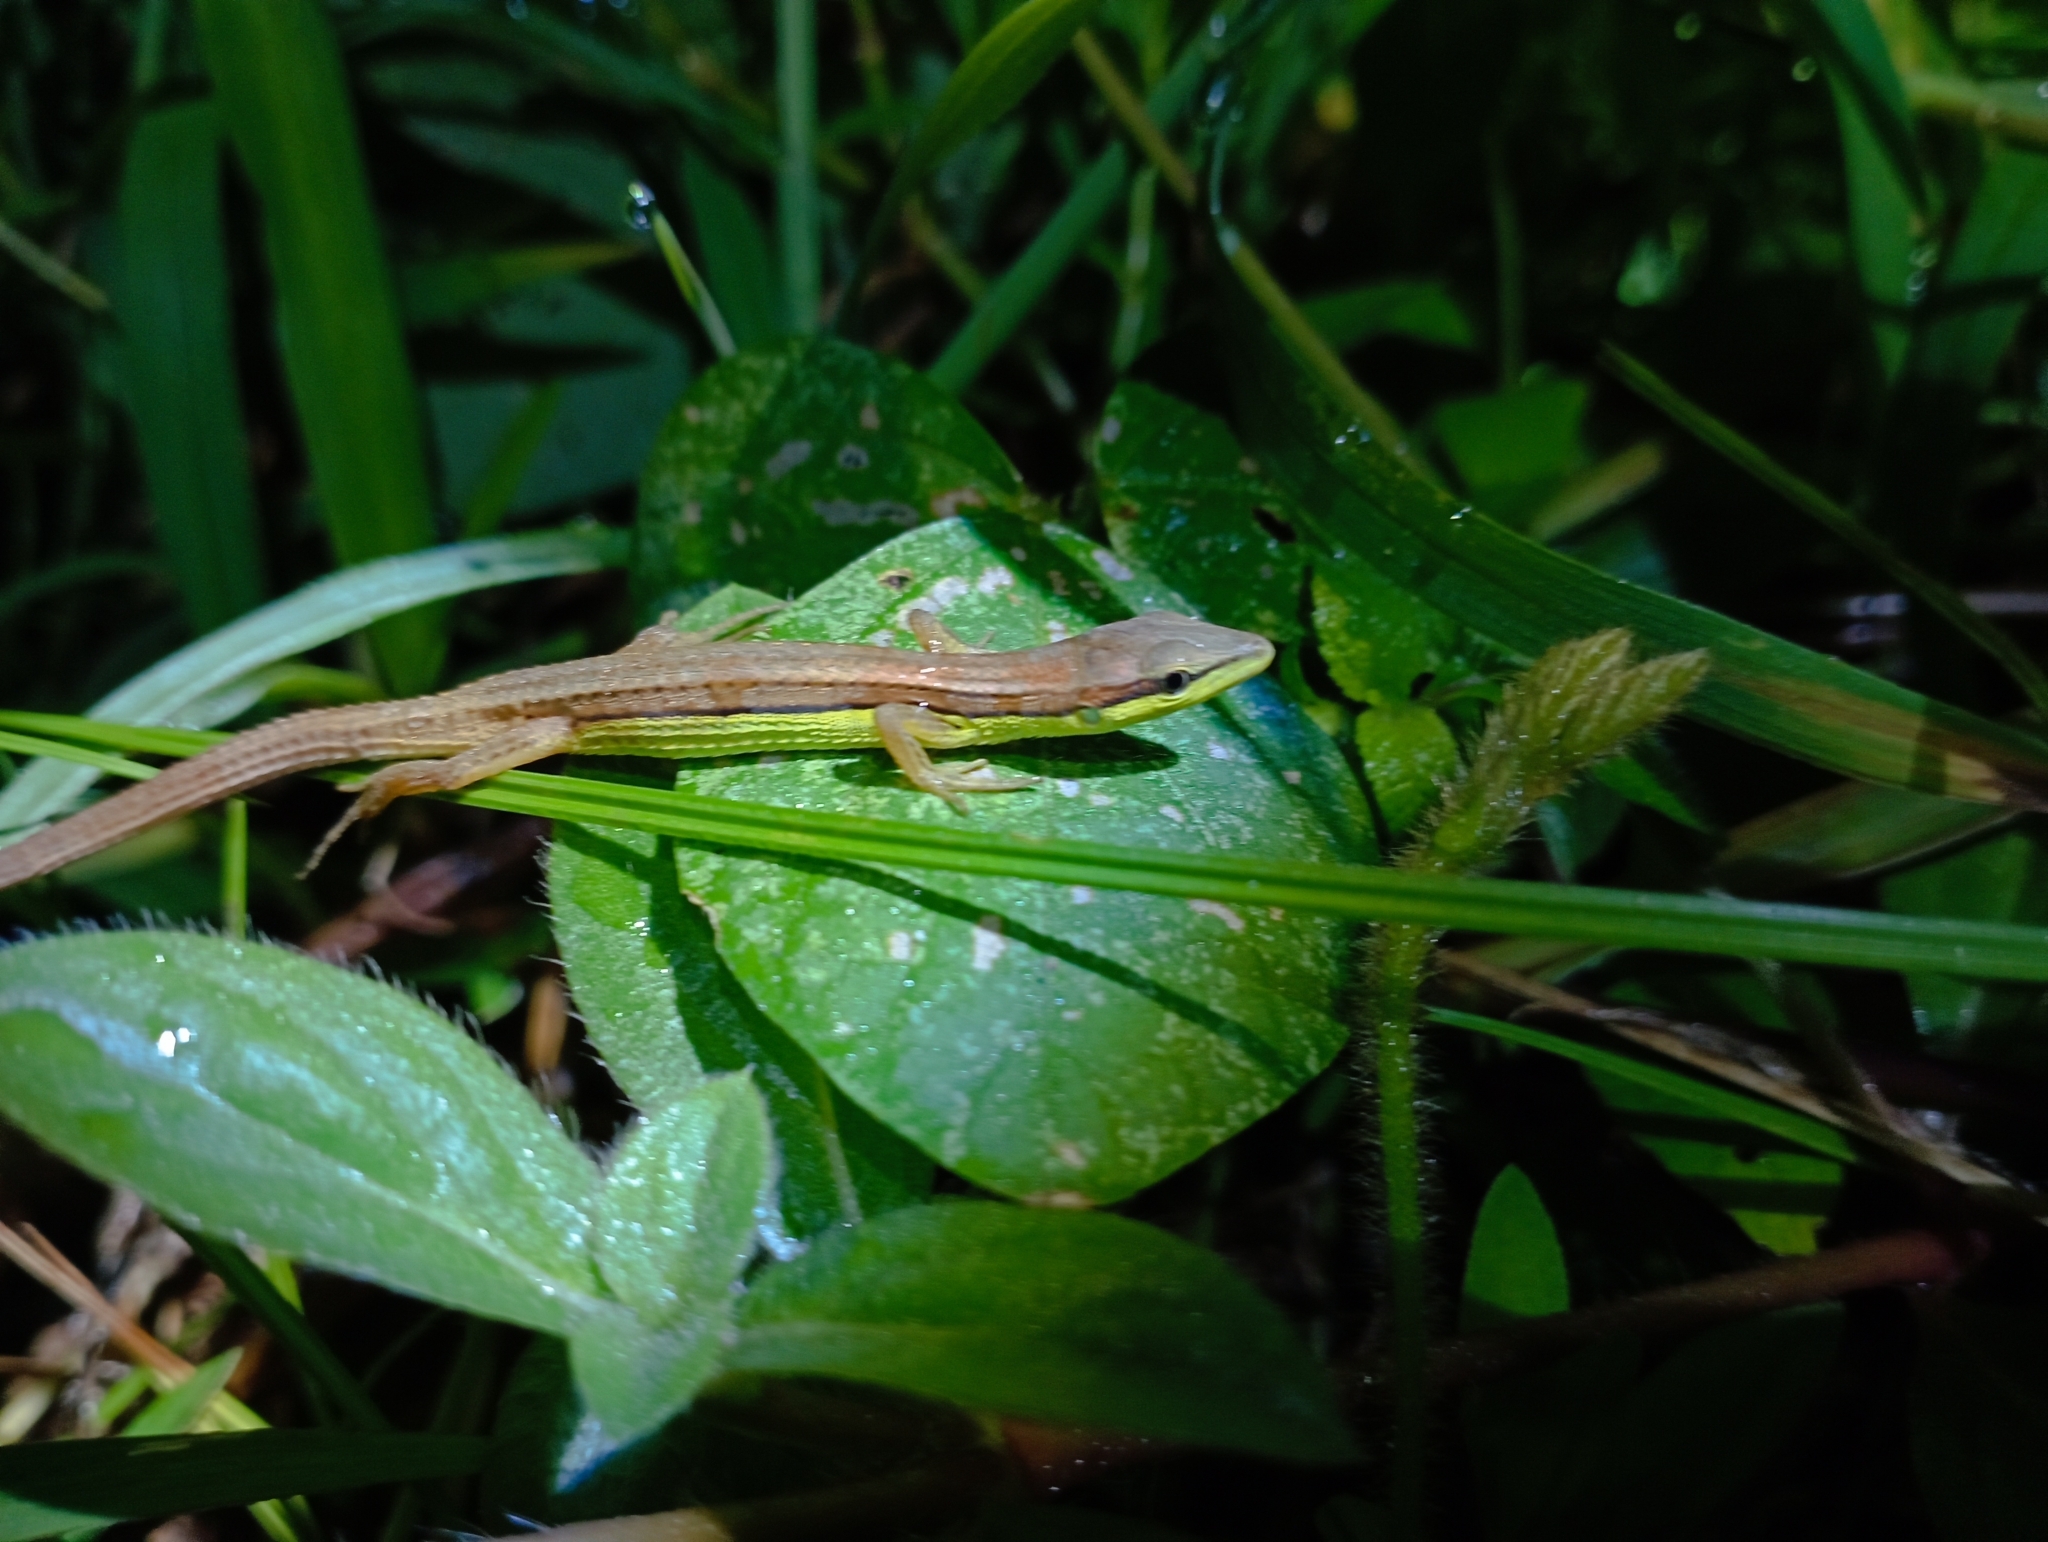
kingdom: Animalia
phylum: Chordata
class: Squamata
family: Lacertidae
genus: Takydromus
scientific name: Takydromus sexlineatus
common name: Asian grass lizard
